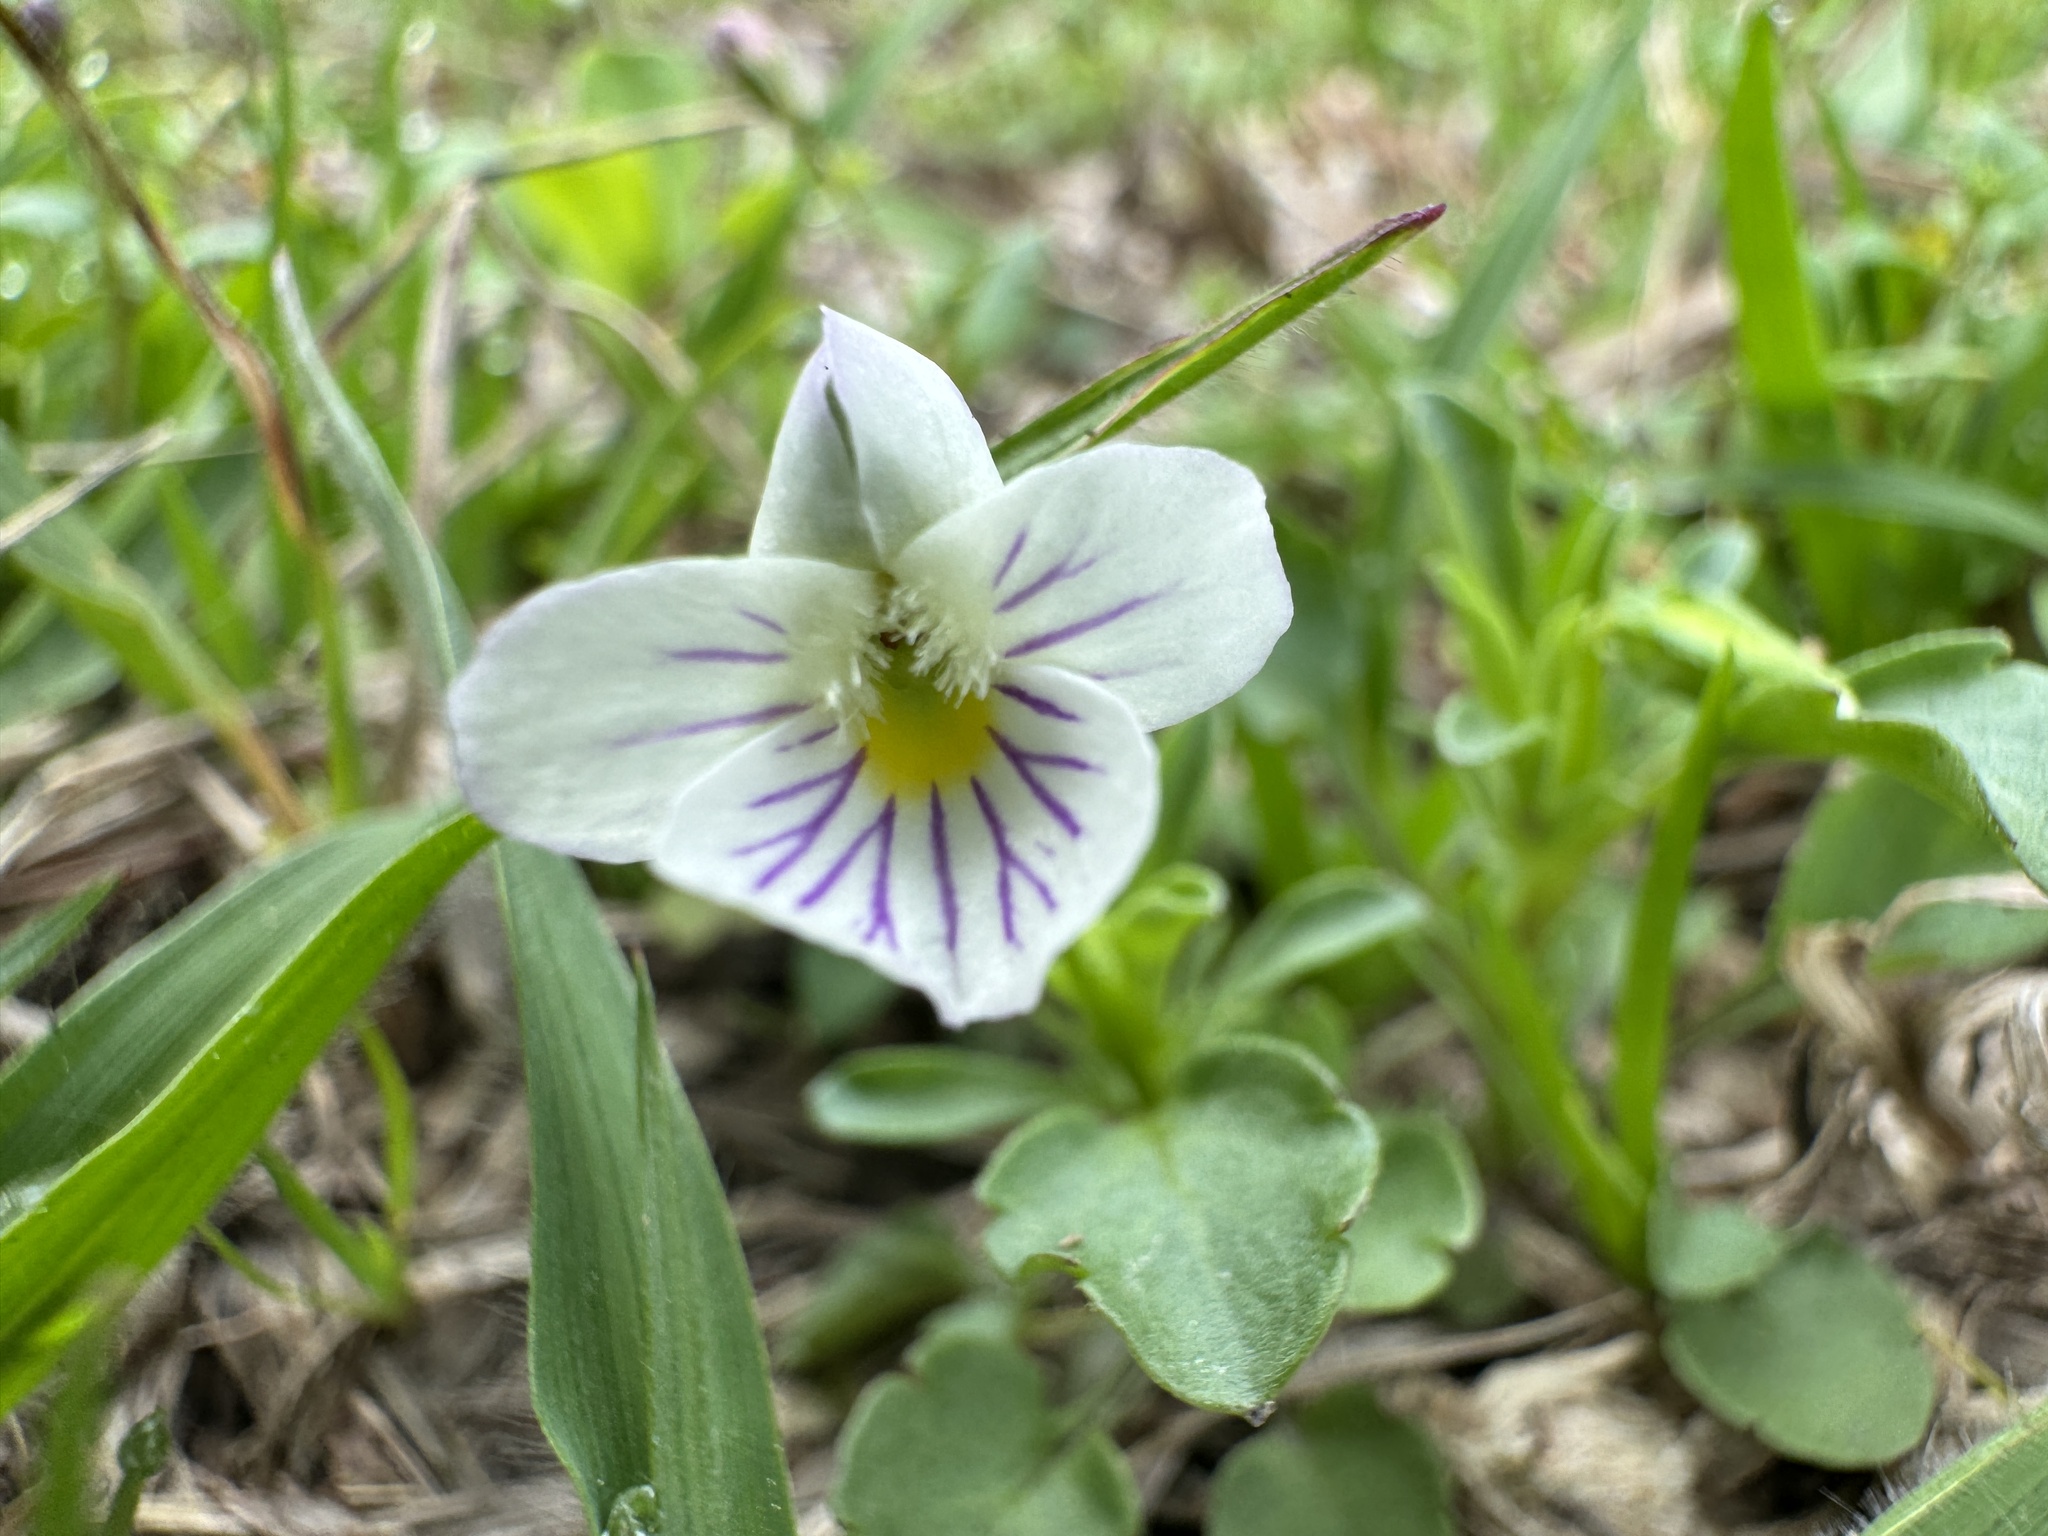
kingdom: Plantae
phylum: Tracheophyta
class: Magnoliopsida
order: Malpighiales
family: Violaceae
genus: Viola
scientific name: Viola rafinesquei
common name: American field pansy
